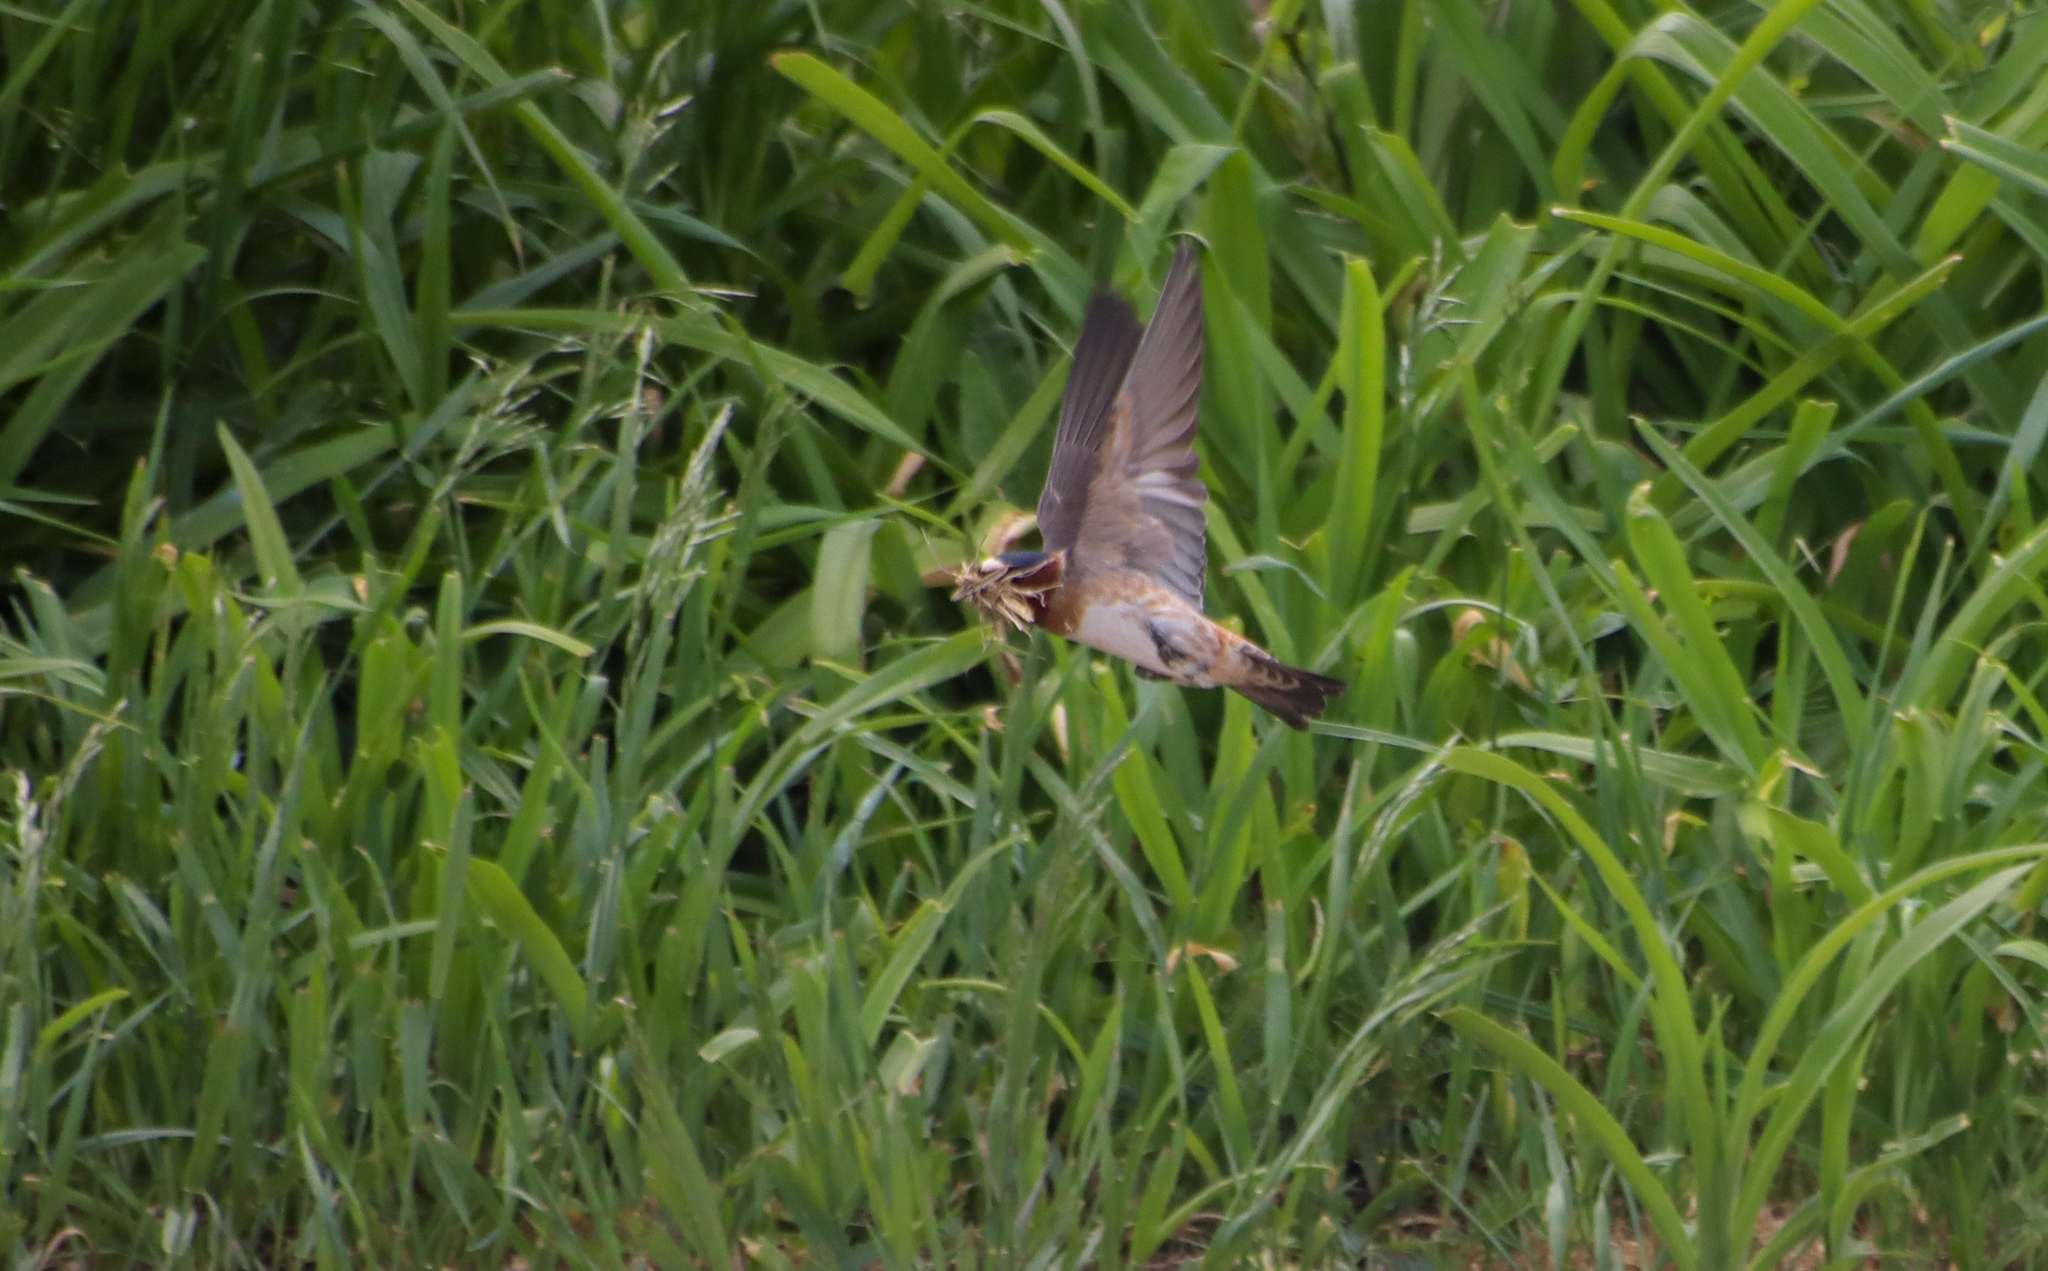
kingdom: Animalia
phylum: Chordata
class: Aves
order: Passeriformes
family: Hirundinidae
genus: Hirundo
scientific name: Hirundo rustica
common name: Barn swallow
